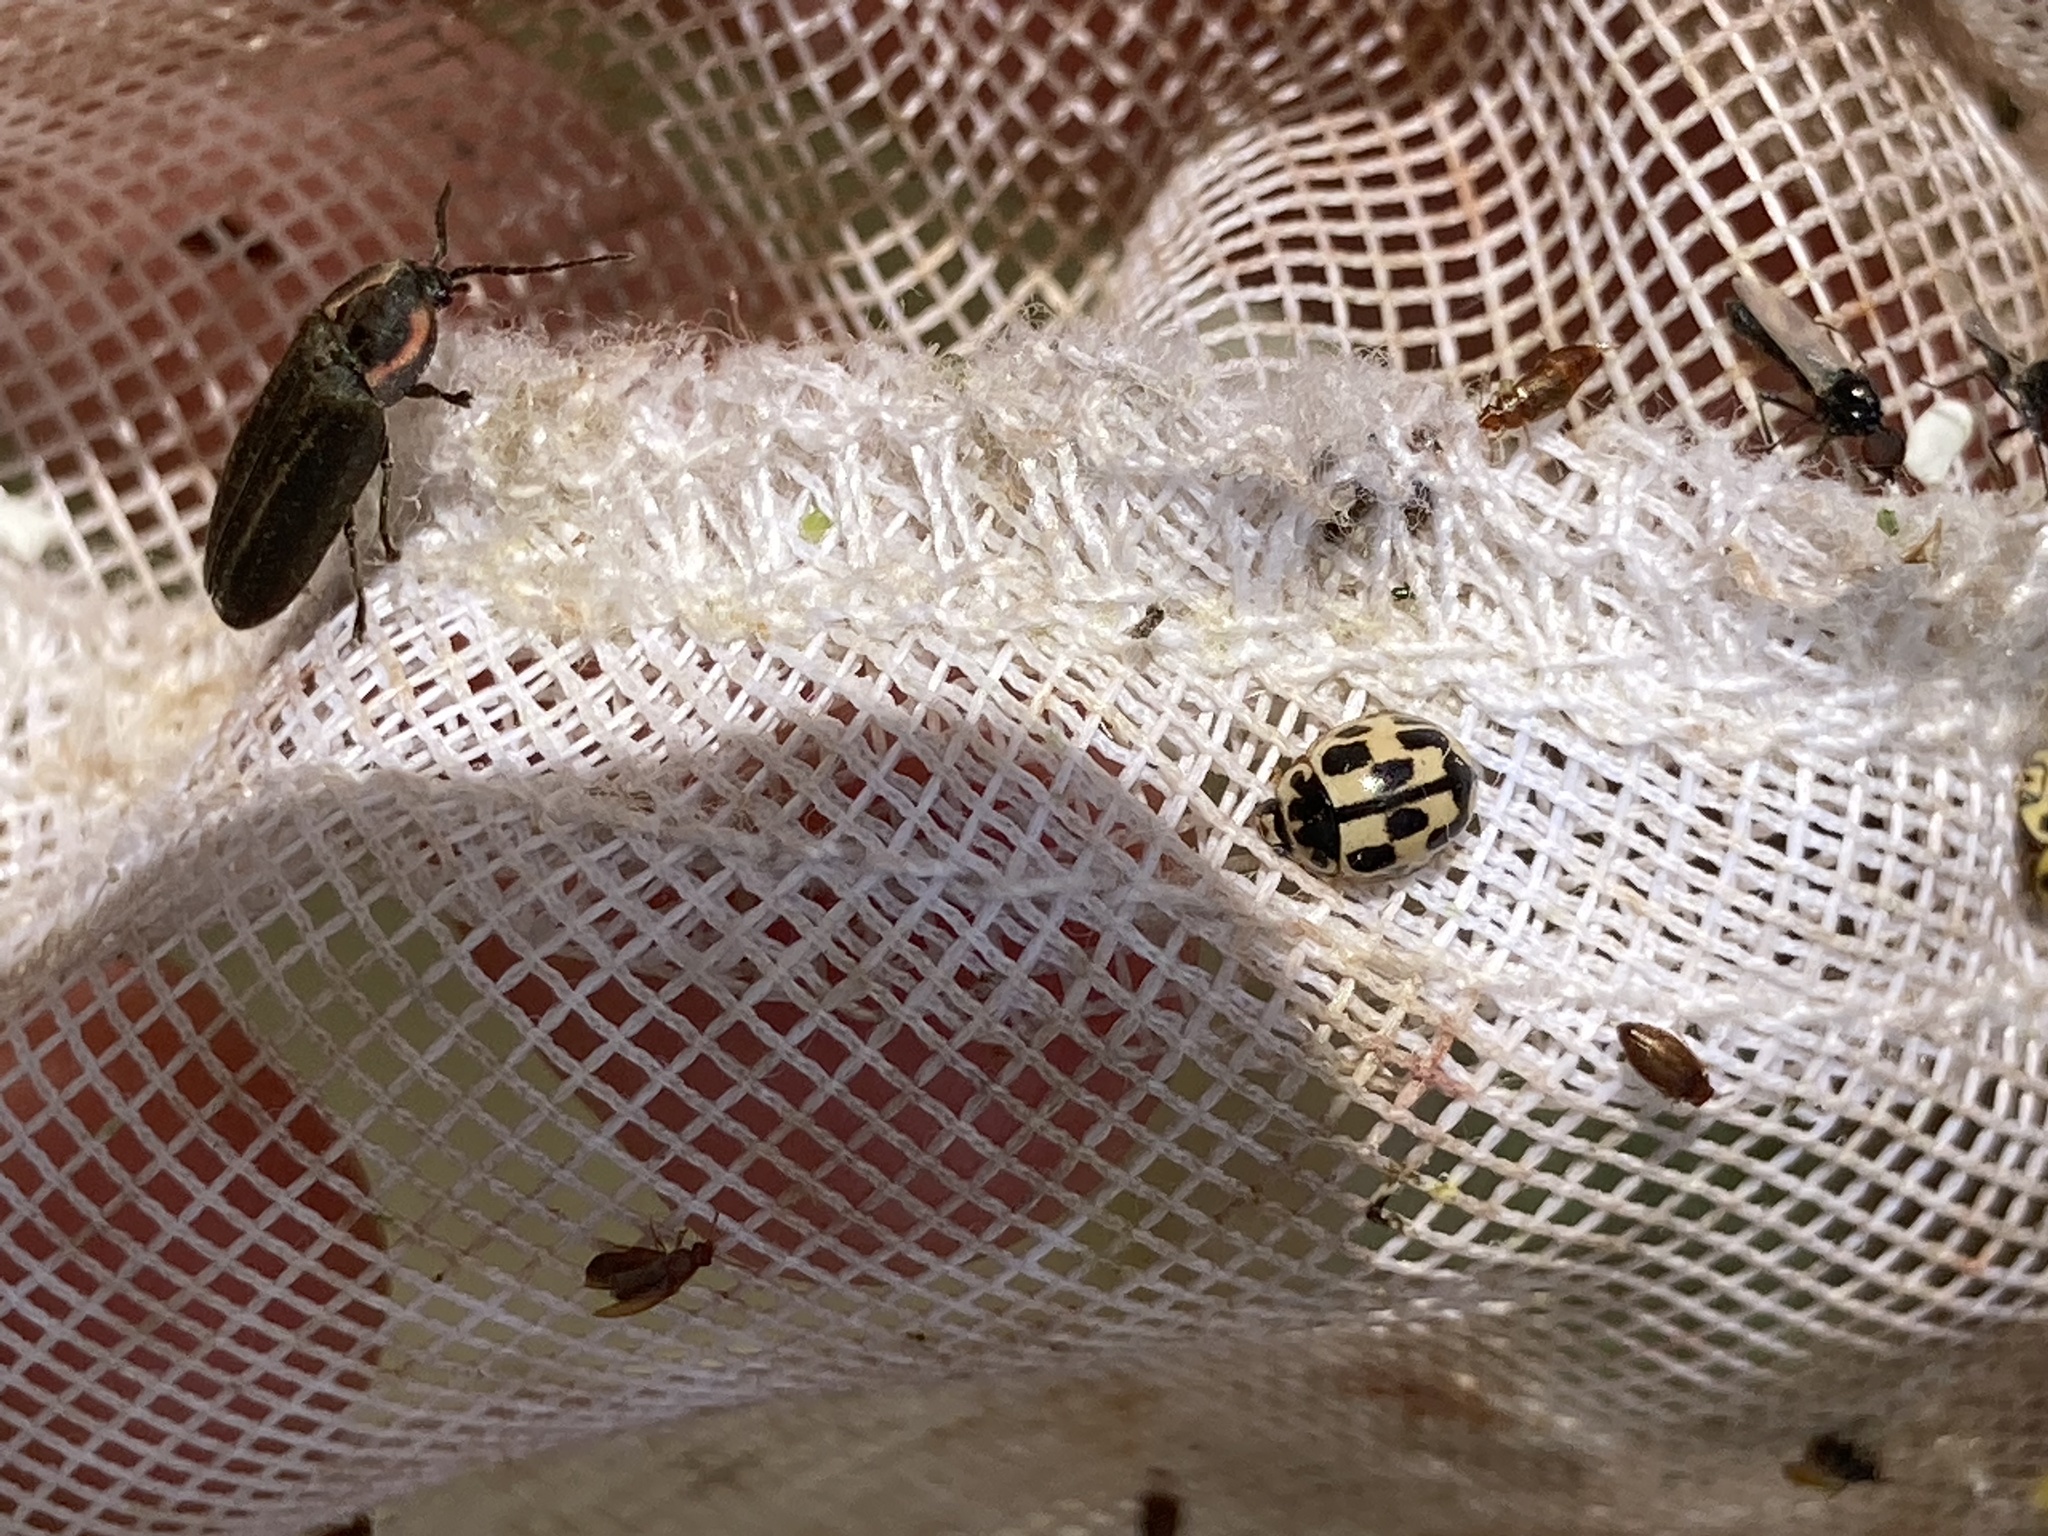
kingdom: Animalia
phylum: Arthropoda
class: Insecta
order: Coleoptera
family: Coccinellidae
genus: Propylaea
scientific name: Propylaea quatuordecimpunctata
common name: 14-spotted ladybird beetle
